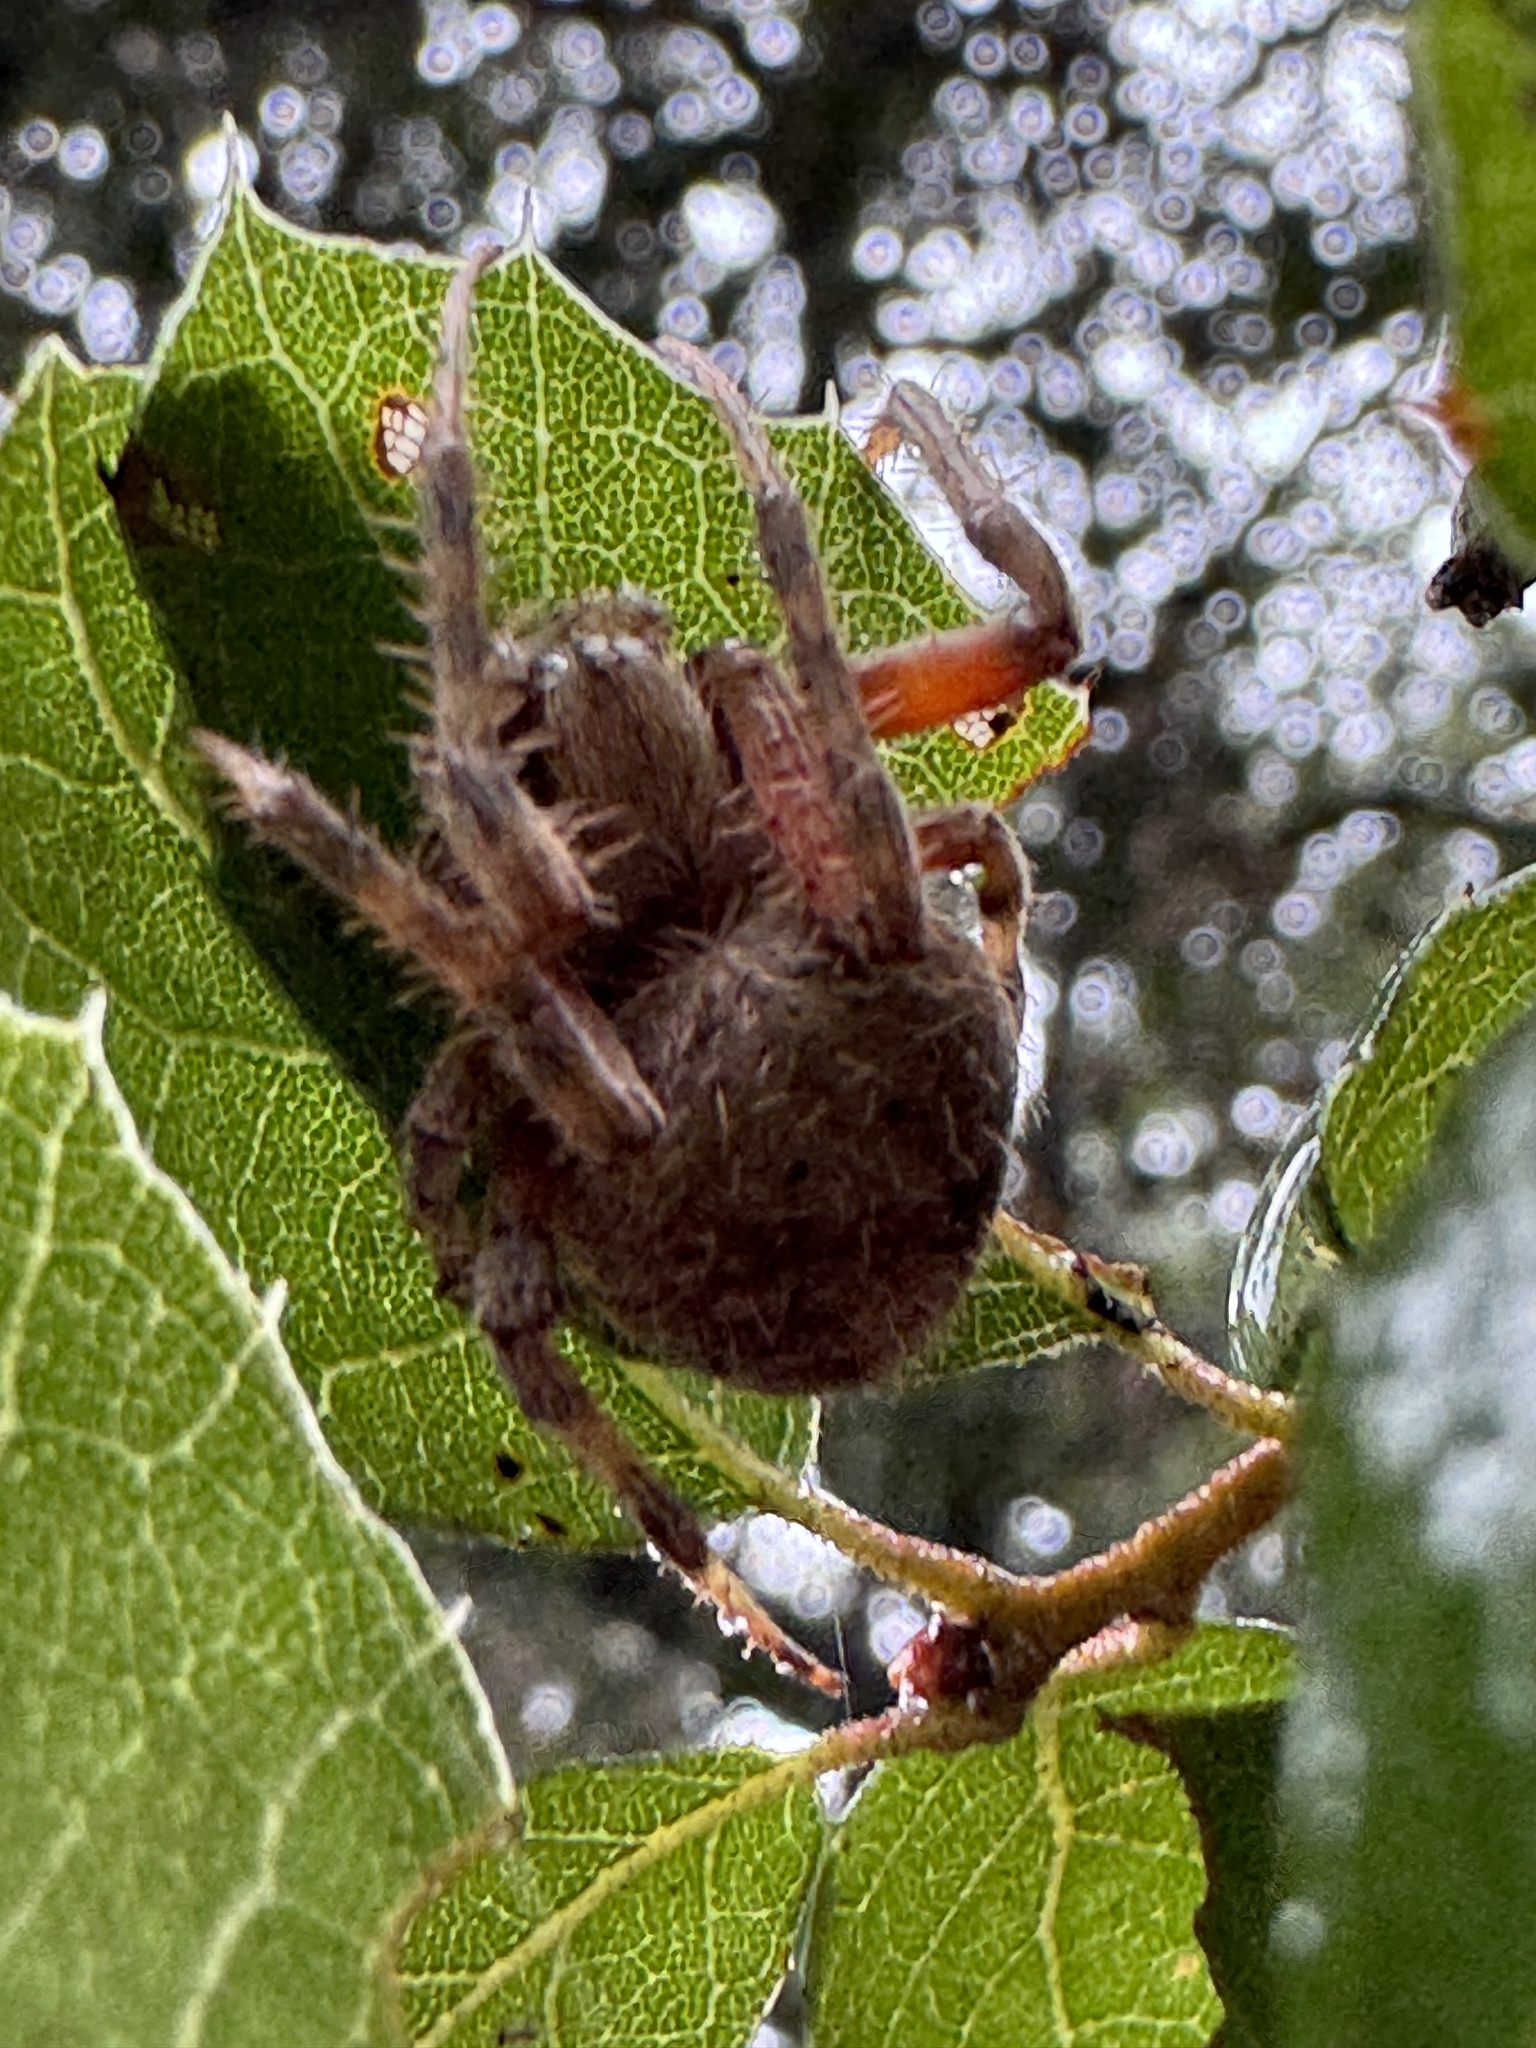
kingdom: Animalia
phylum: Arthropoda
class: Arachnida
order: Araneae
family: Araneidae
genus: Neoscona
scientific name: Neoscona crucifera
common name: Spotted orbweaver
